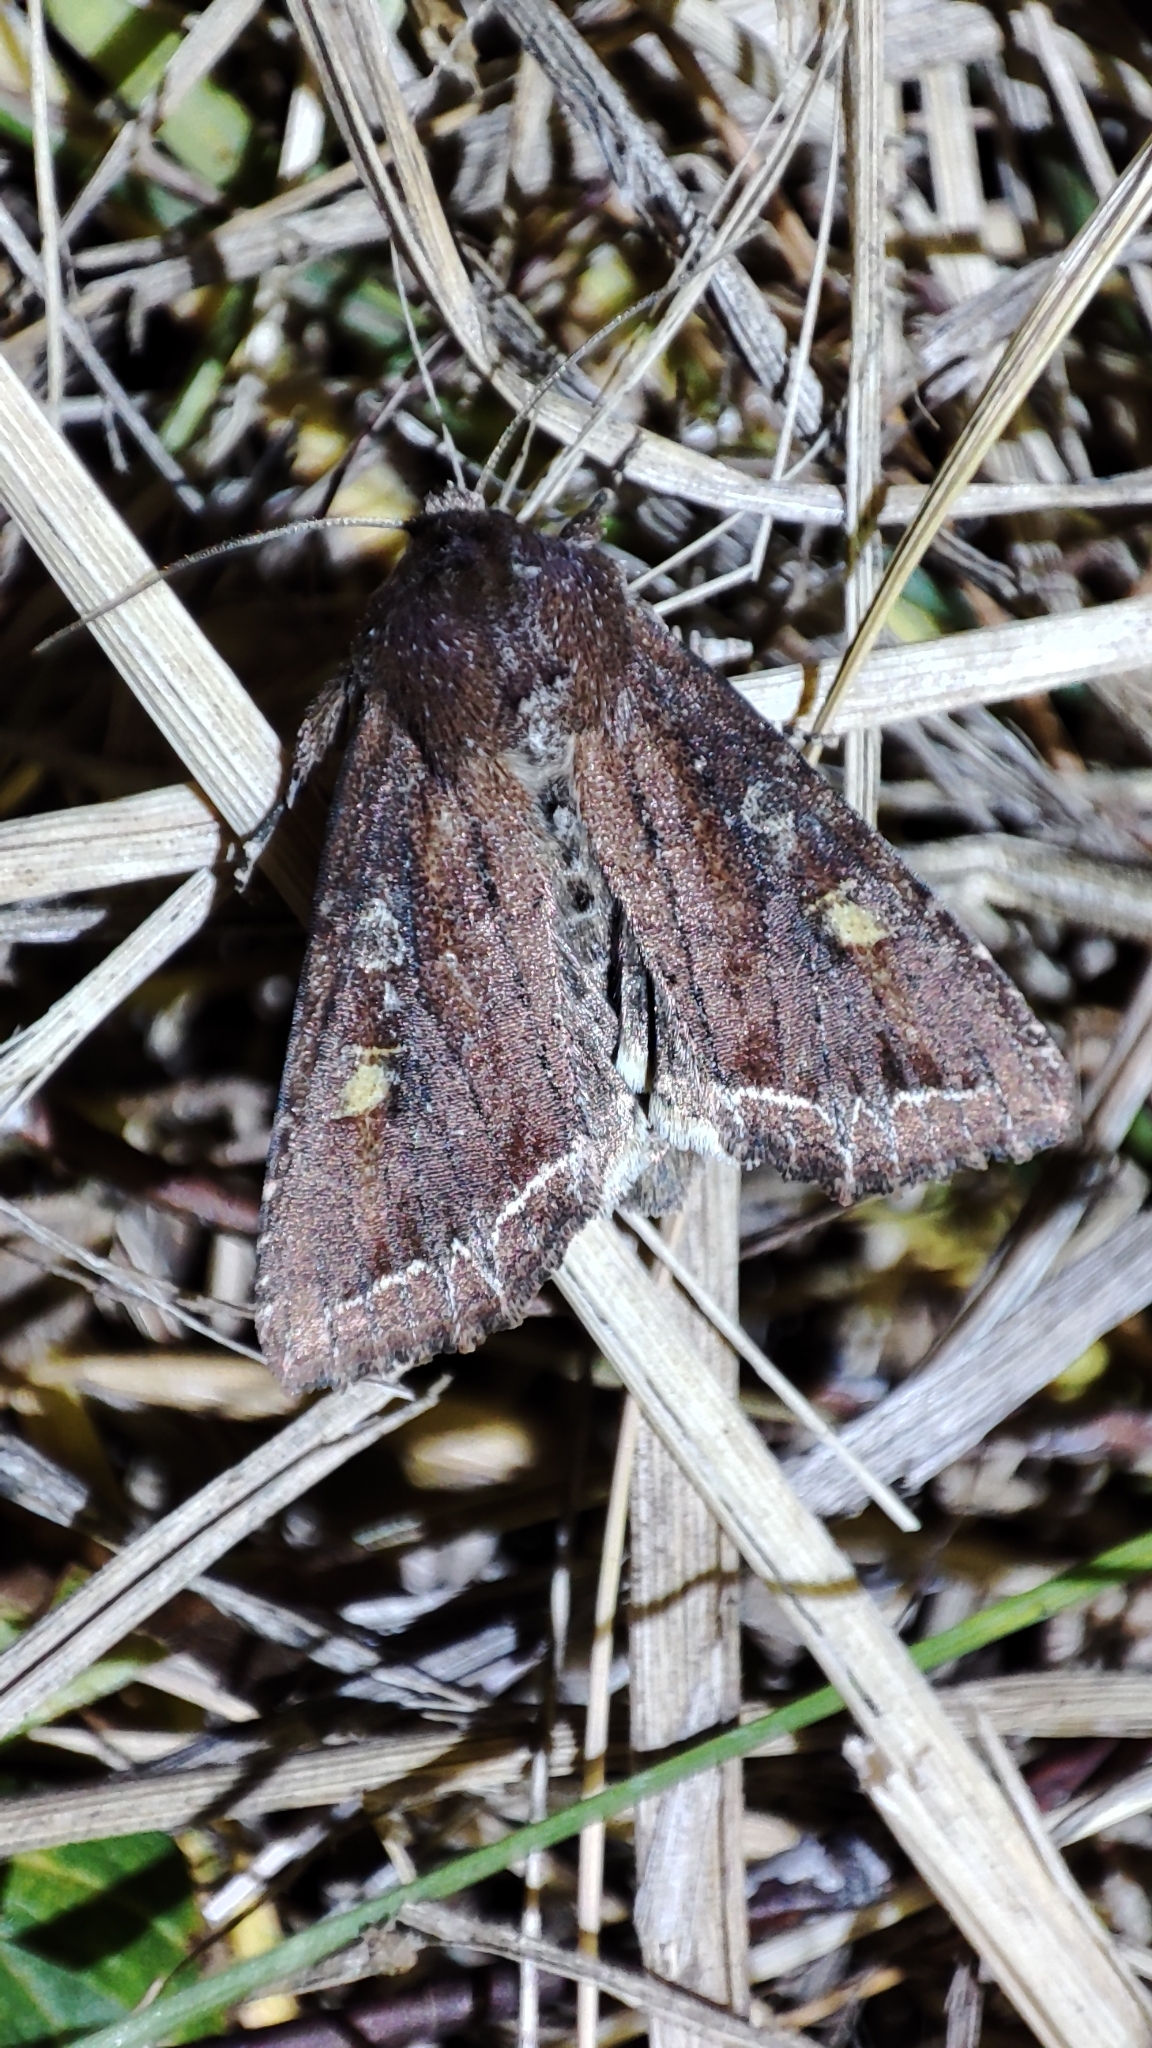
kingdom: Animalia
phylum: Arthropoda
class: Insecta
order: Lepidoptera
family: Noctuidae
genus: Lacanobia
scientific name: Lacanobia oleracea
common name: Bright-line brown-eye
